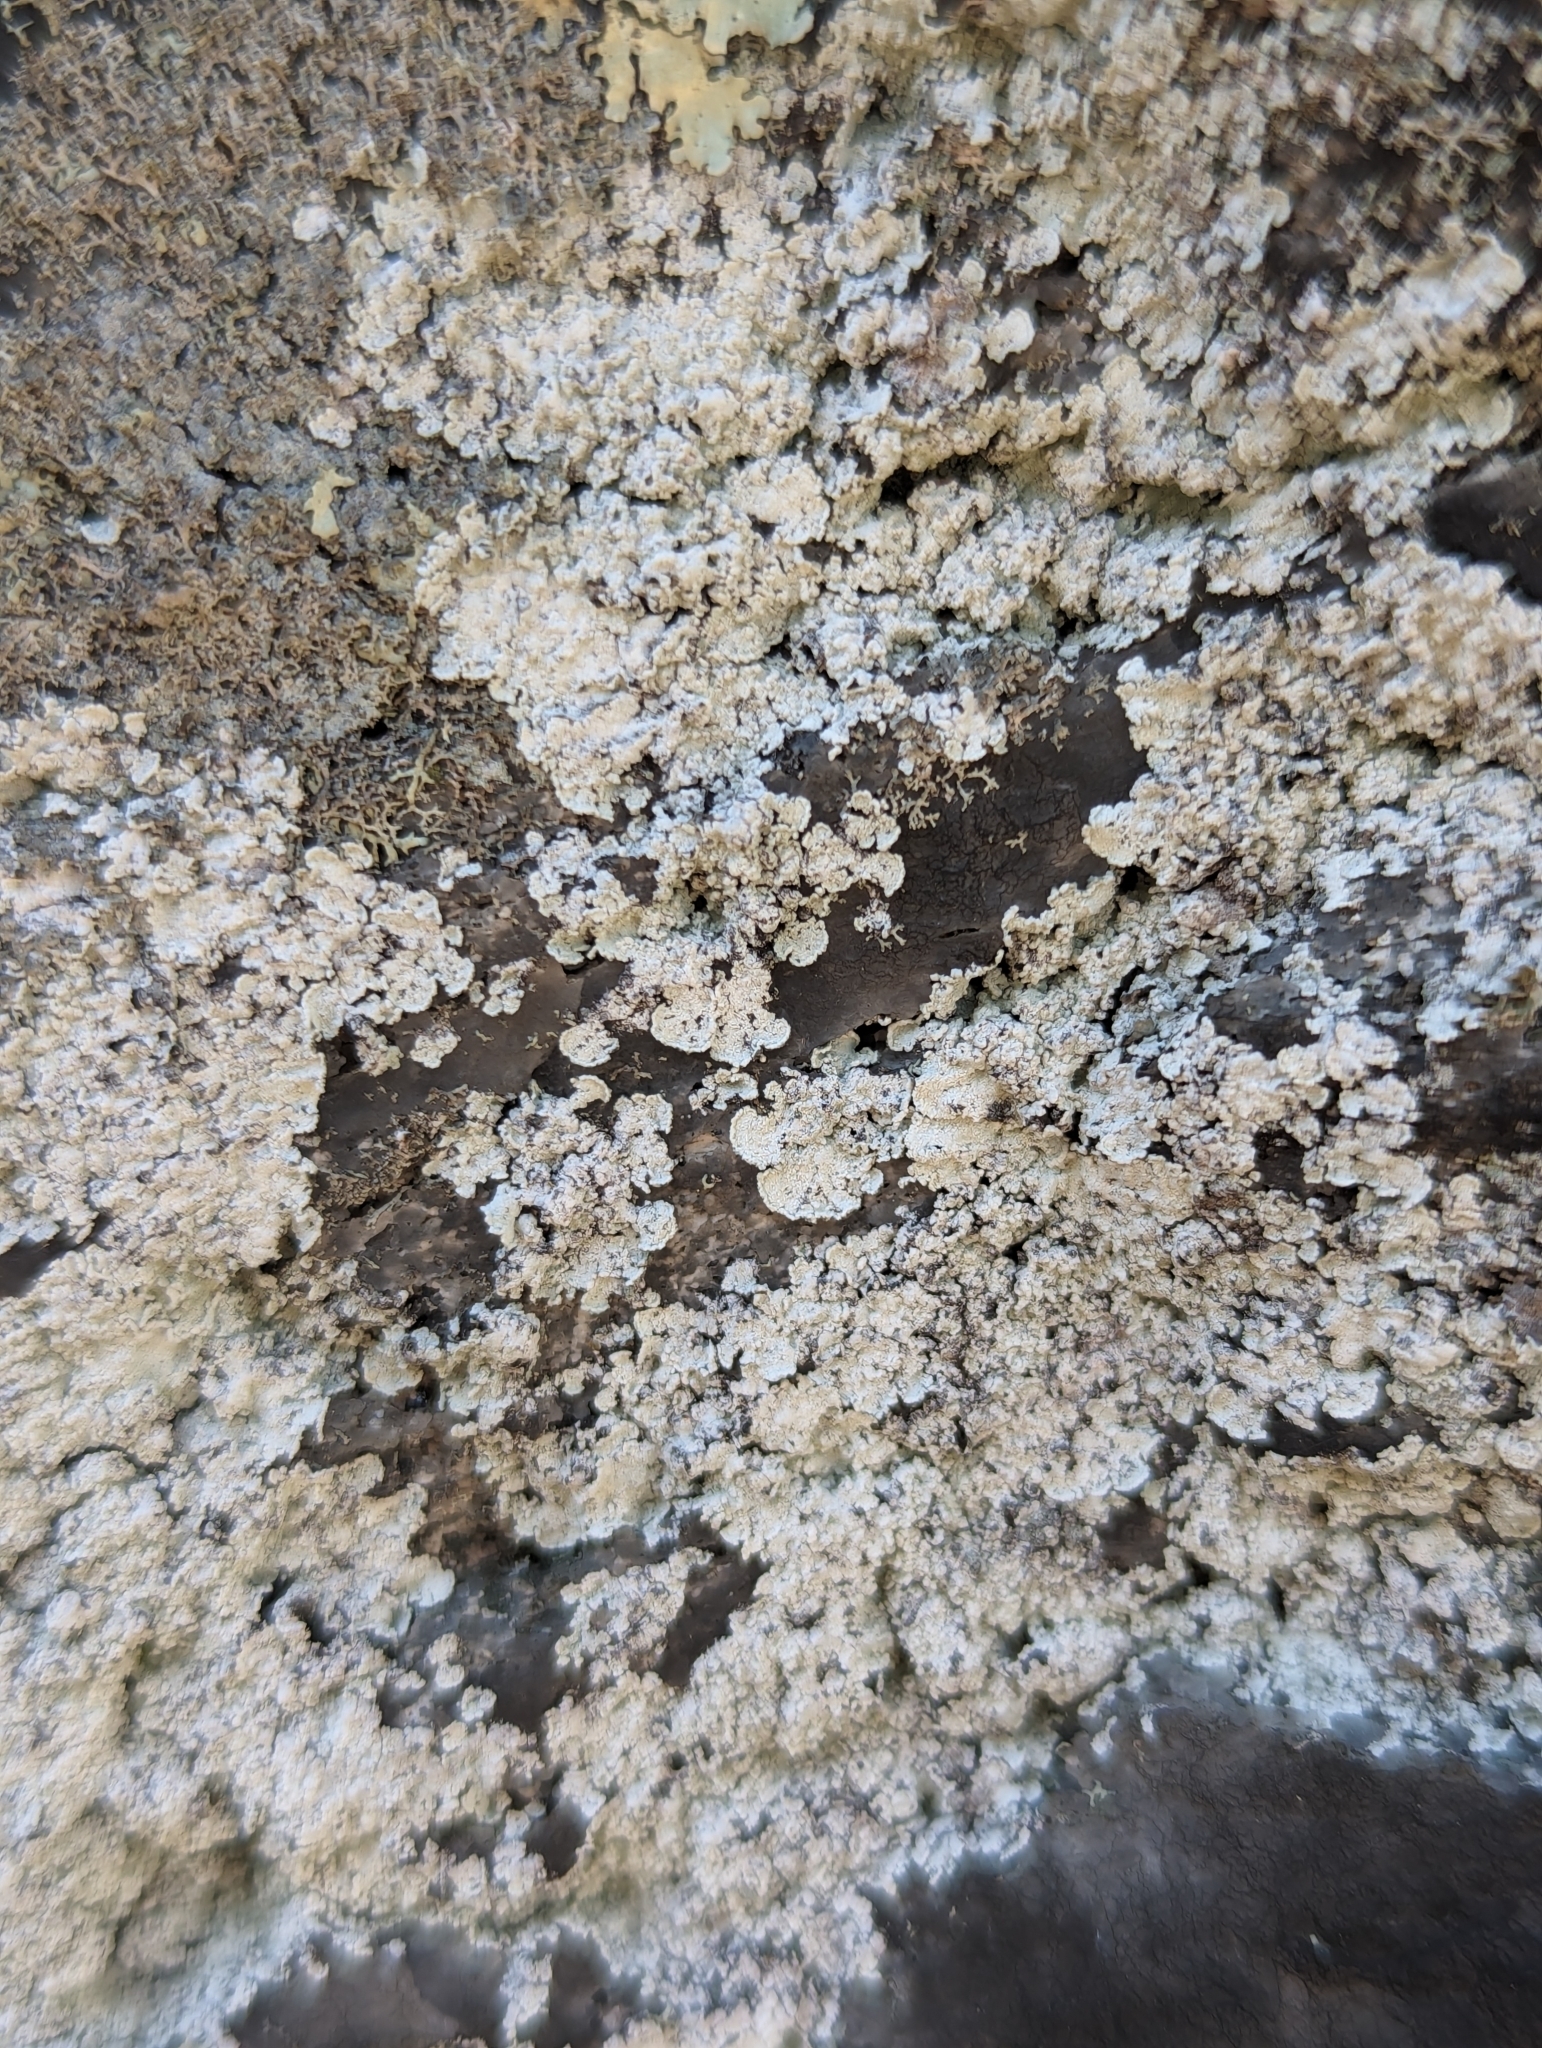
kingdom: Fungi
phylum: Ascomycota
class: Lecanoromycetes
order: Lecanorales
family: Stereocaulaceae
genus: Lepraria
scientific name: Lepraria normandinoides
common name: Elf-ear dust
